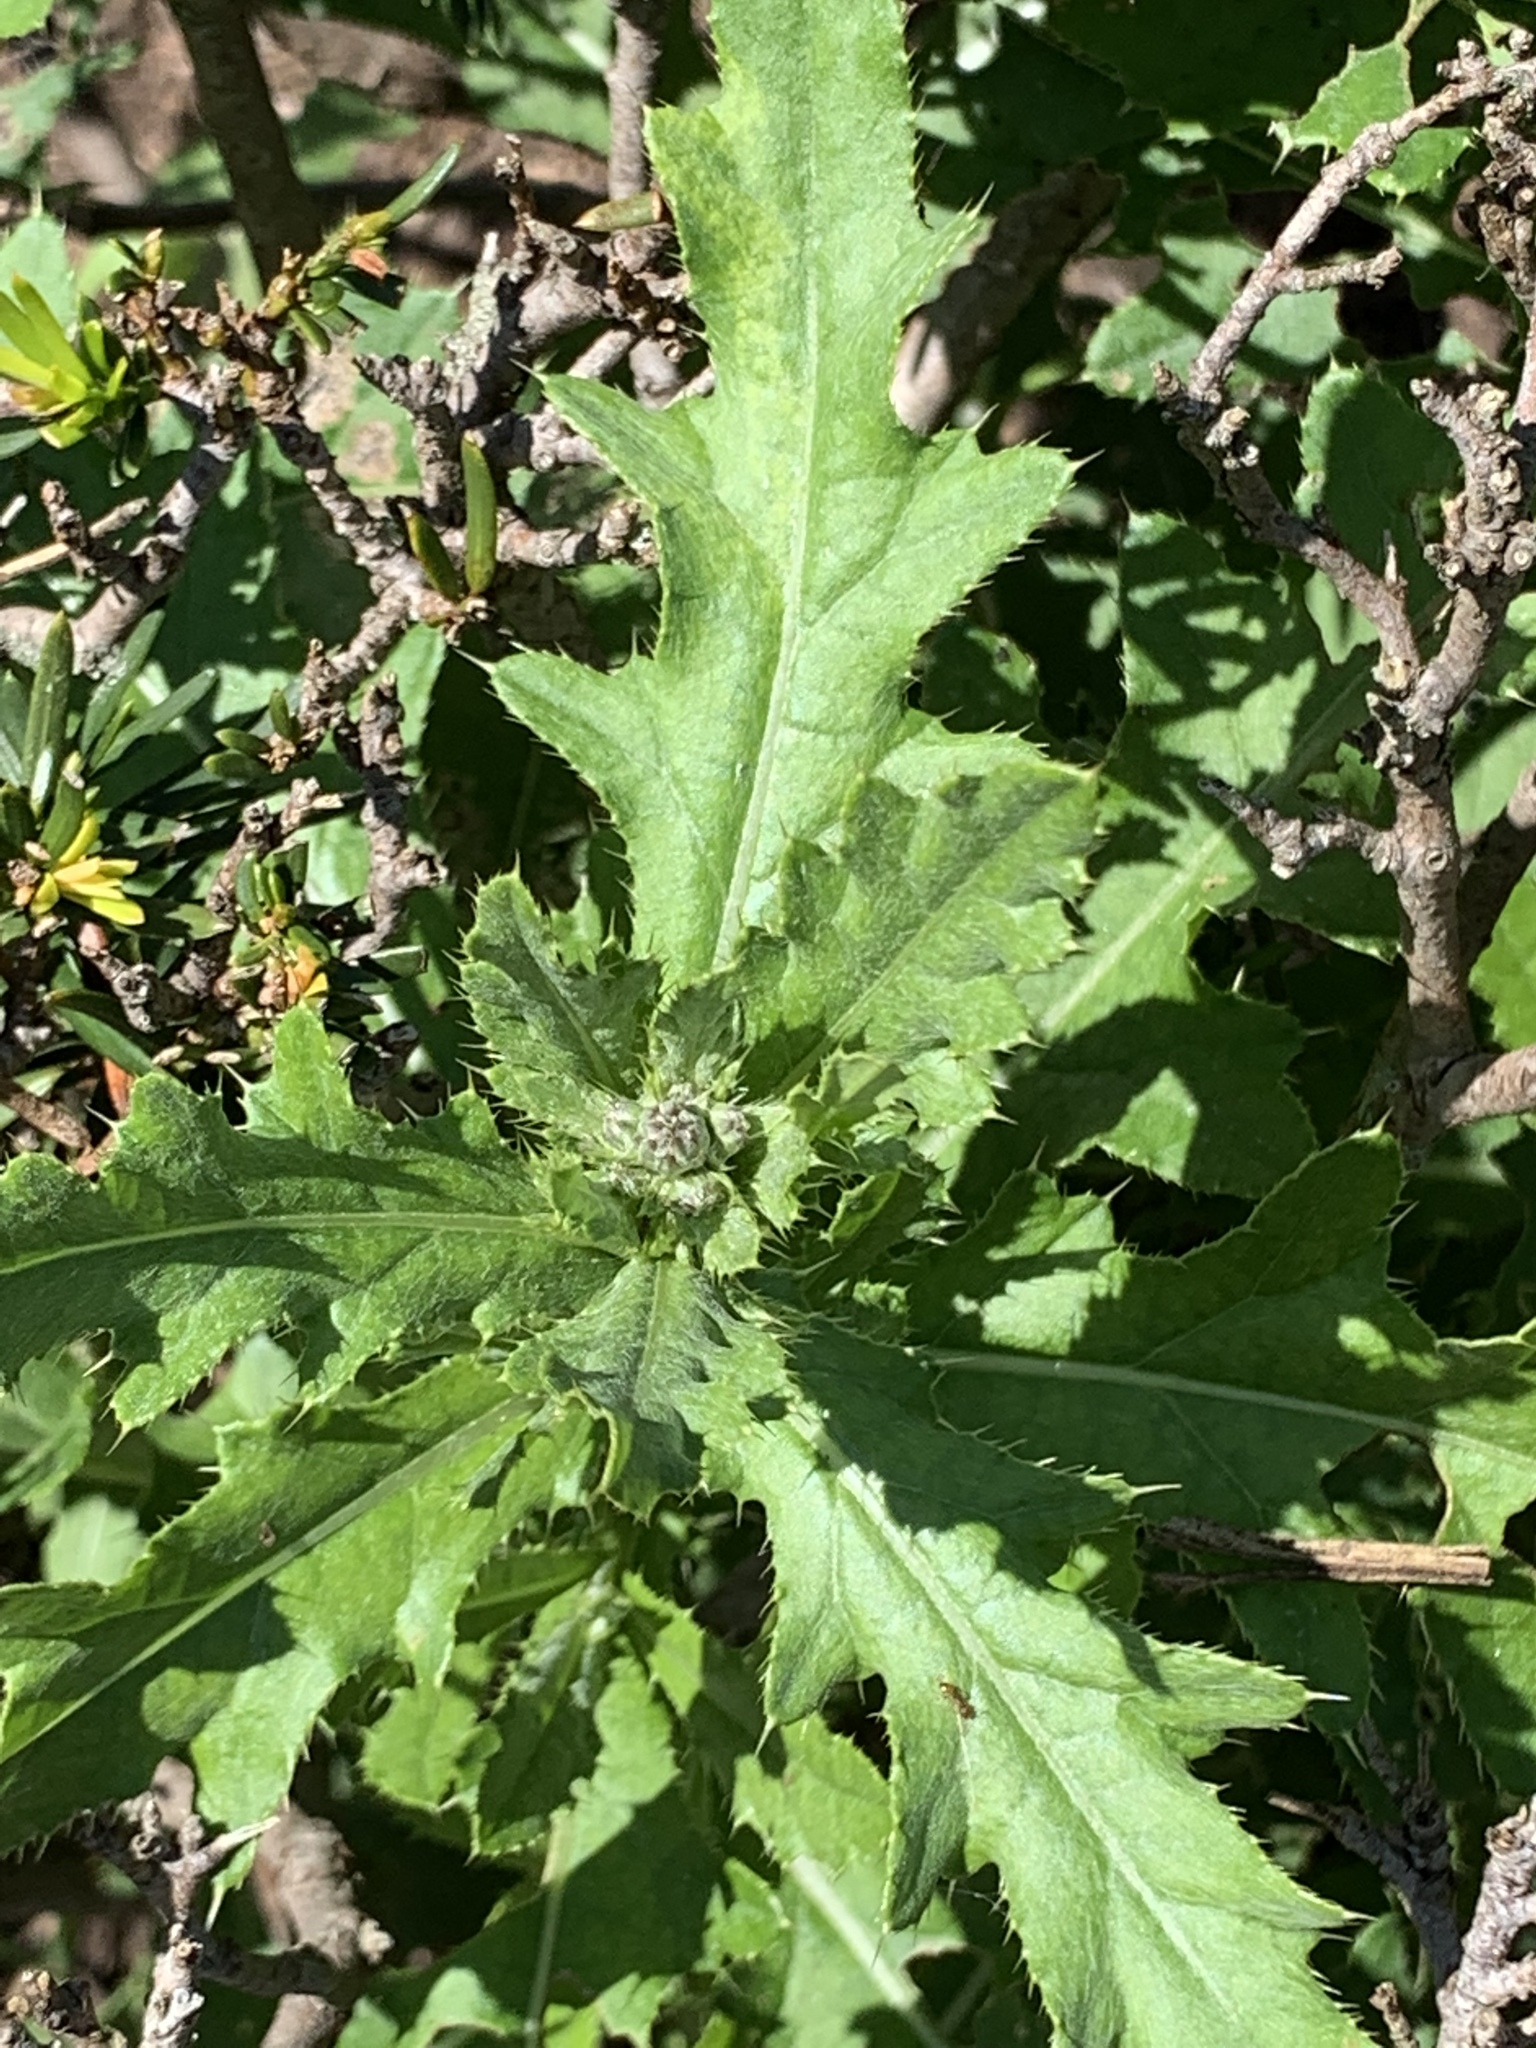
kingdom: Plantae
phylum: Tracheophyta
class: Magnoliopsida
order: Asterales
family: Asteraceae
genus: Cirsium
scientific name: Cirsium arvense
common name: Creeping thistle
